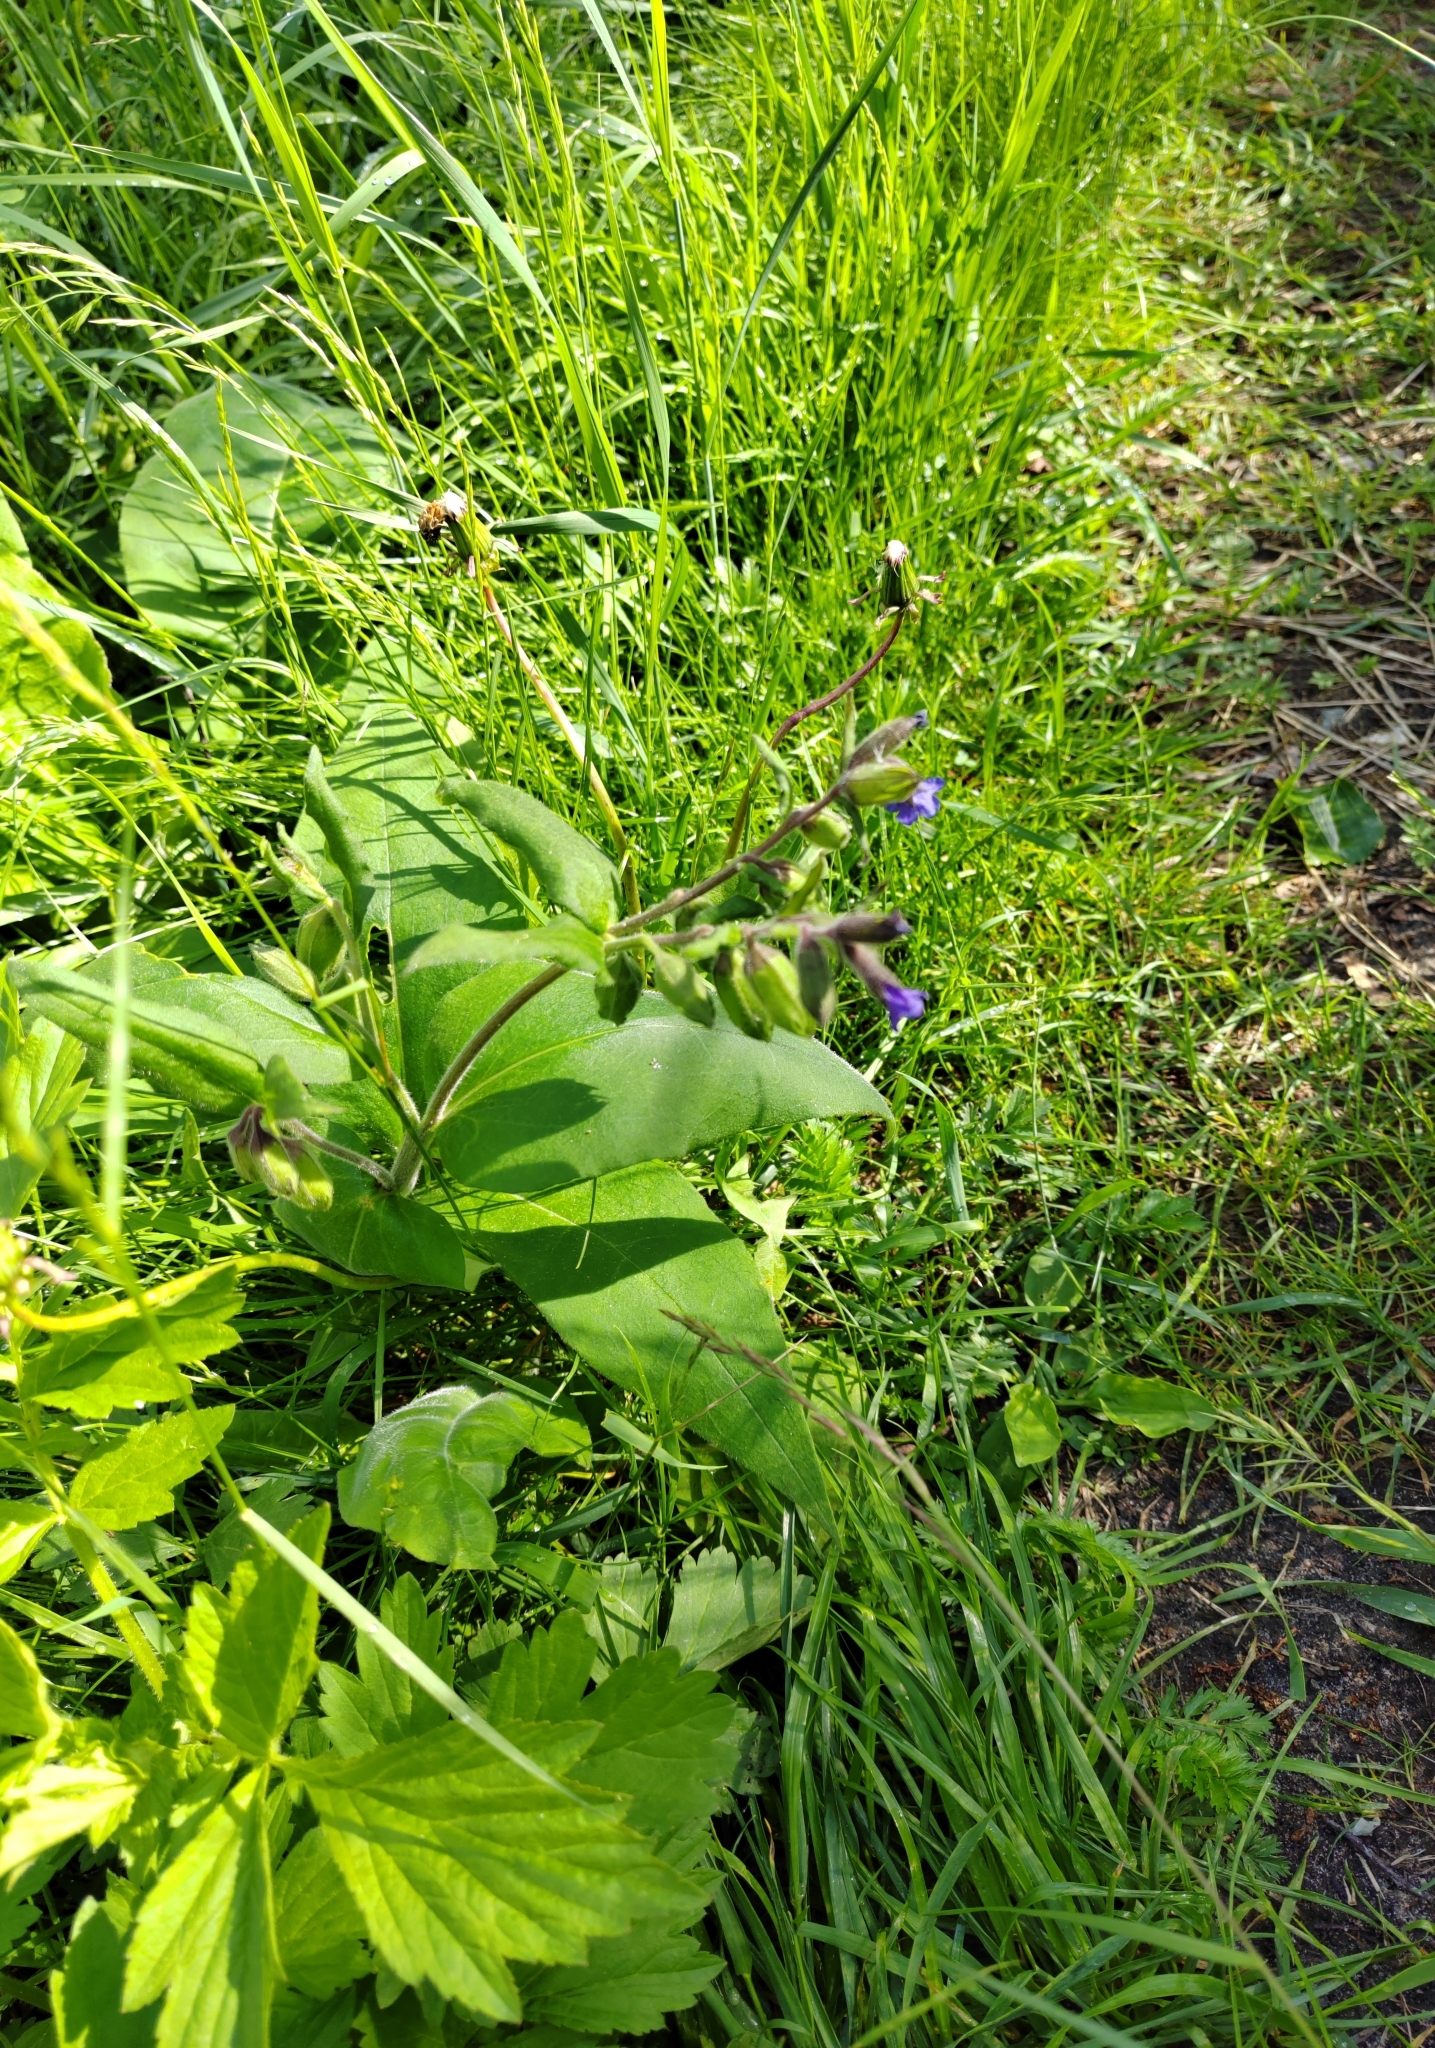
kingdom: Plantae
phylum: Tracheophyta
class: Magnoliopsida
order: Boraginales
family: Boraginaceae
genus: Pulmonaria
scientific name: Pulmonaria mollis
